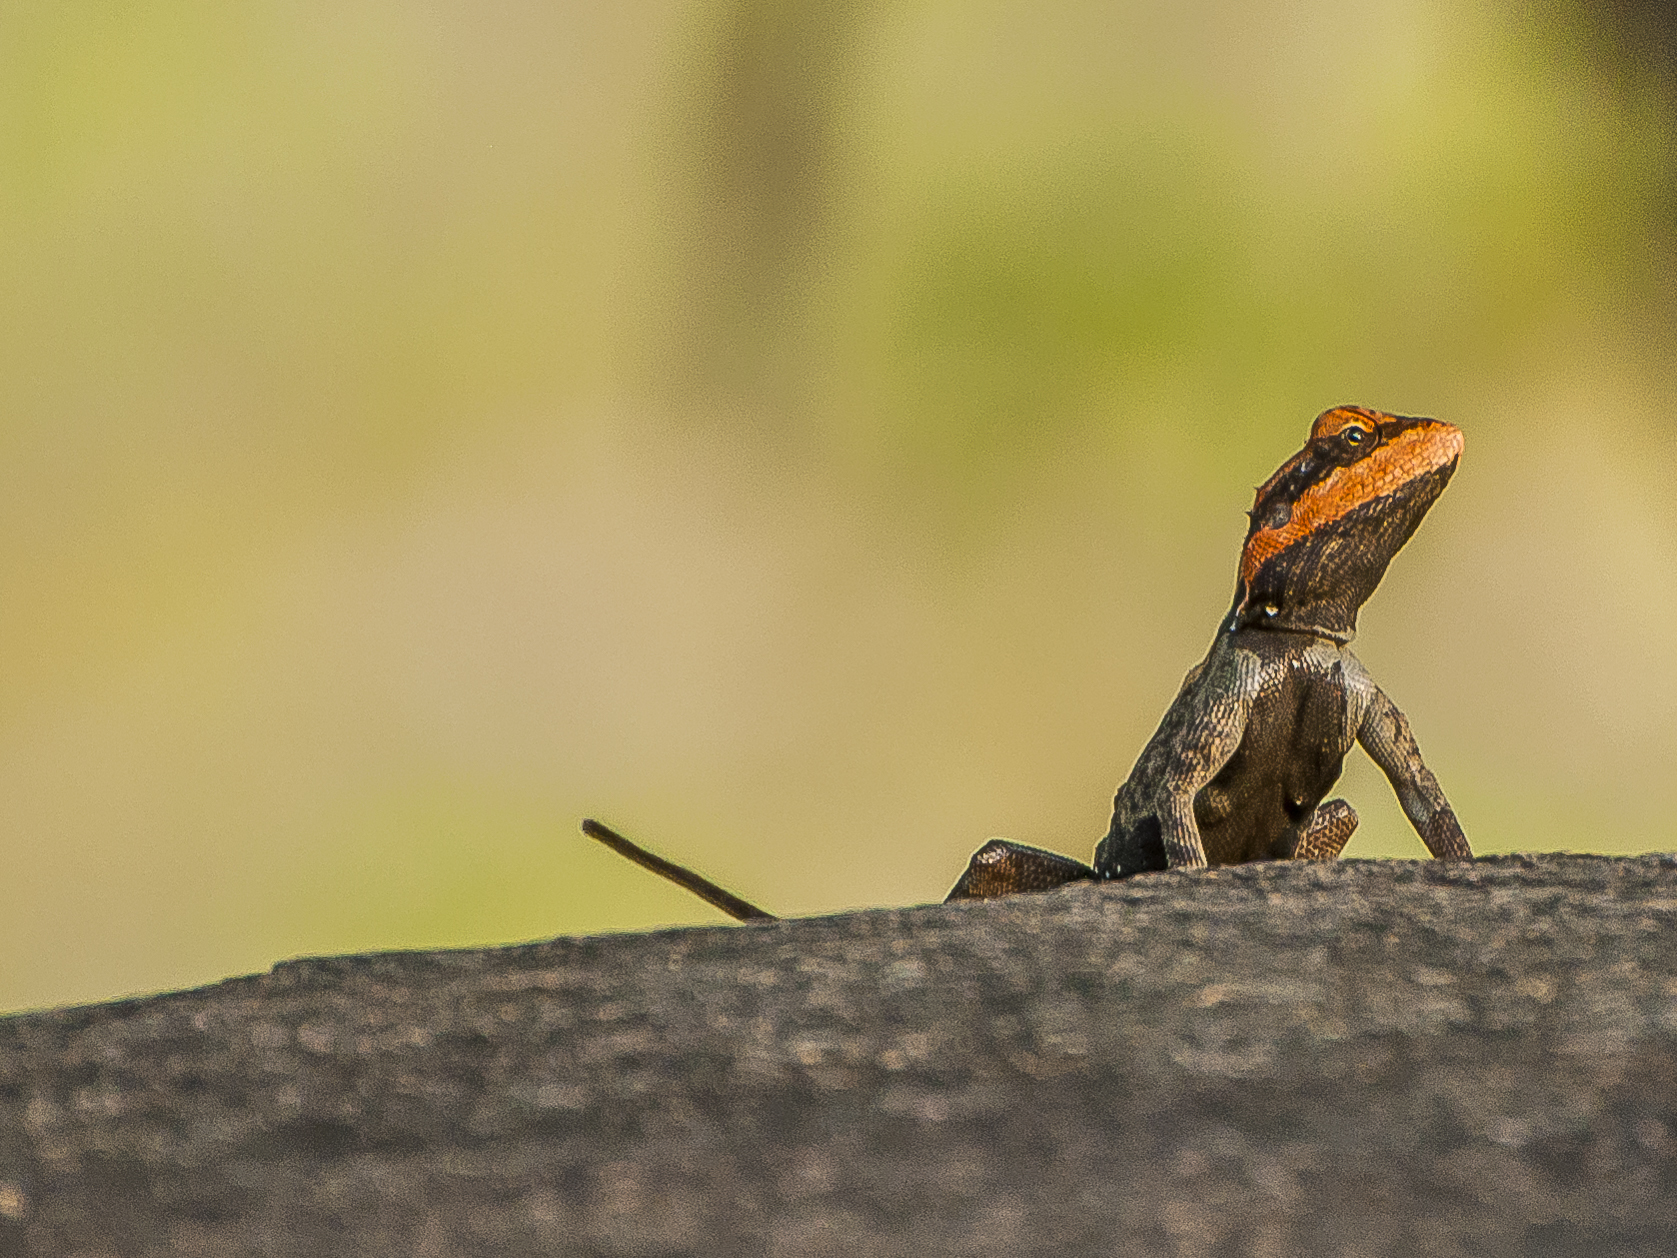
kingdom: Animalia
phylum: Chordata
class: Squamata
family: Agamidae
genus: Psammophilus
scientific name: Psammophilus dorsalis
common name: South indian rock agama
